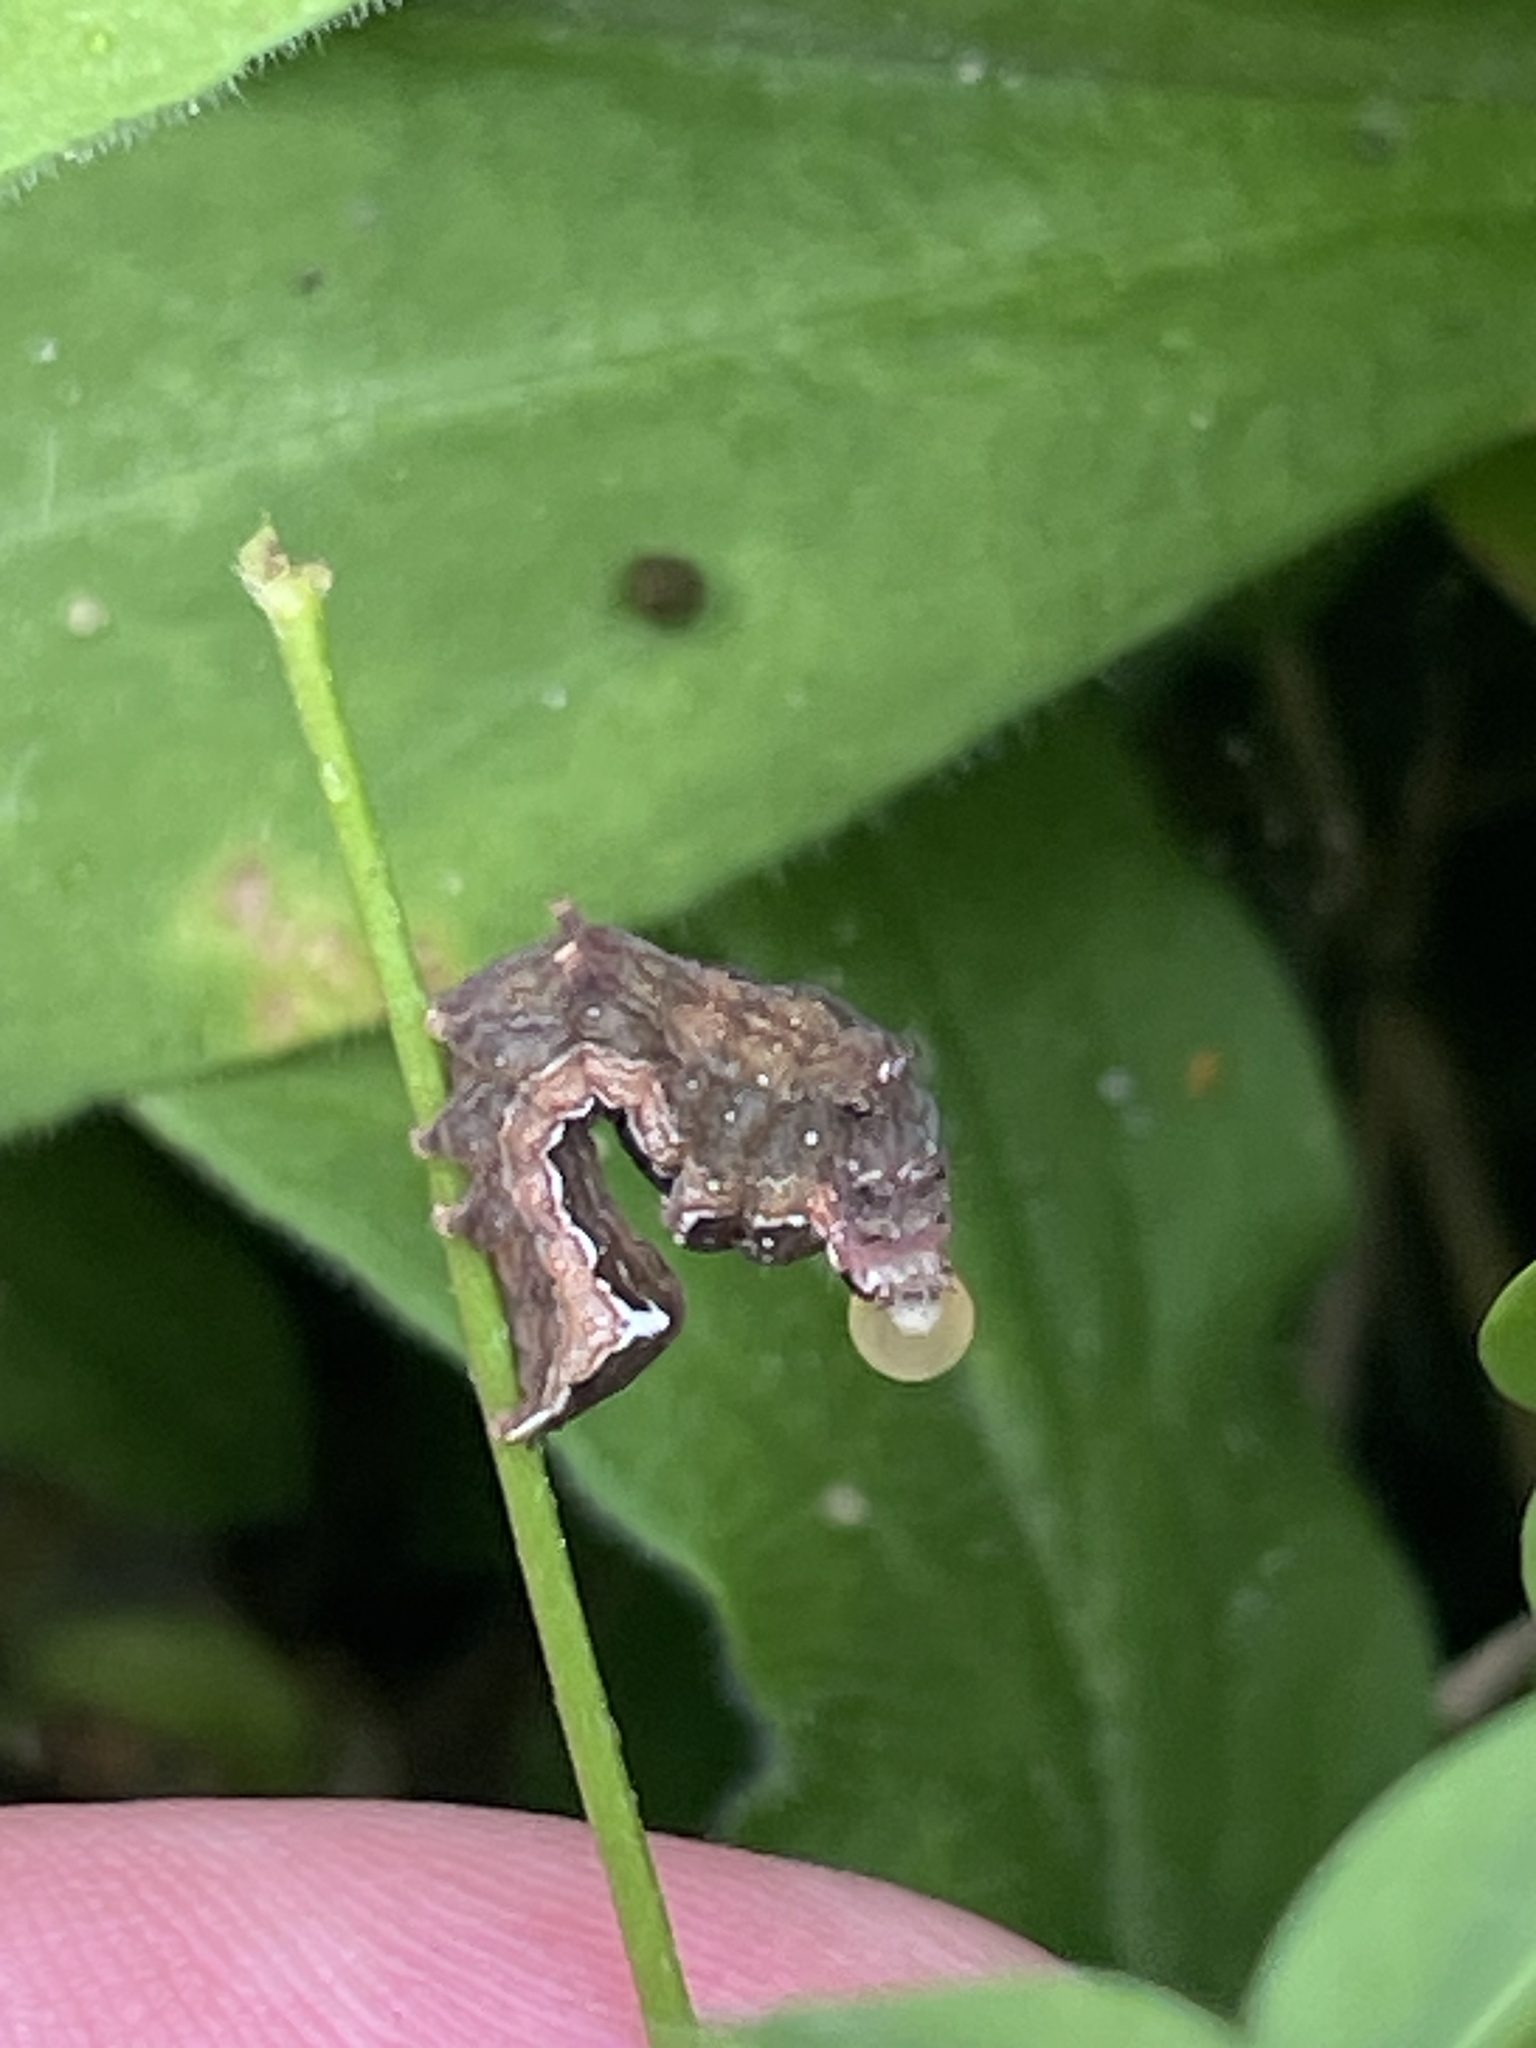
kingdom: Animalia
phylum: Arthropoda
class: Insecta
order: Lepidoptera
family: Noctuidae
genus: Galgula
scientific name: Galgula partita
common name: Wedgeling
